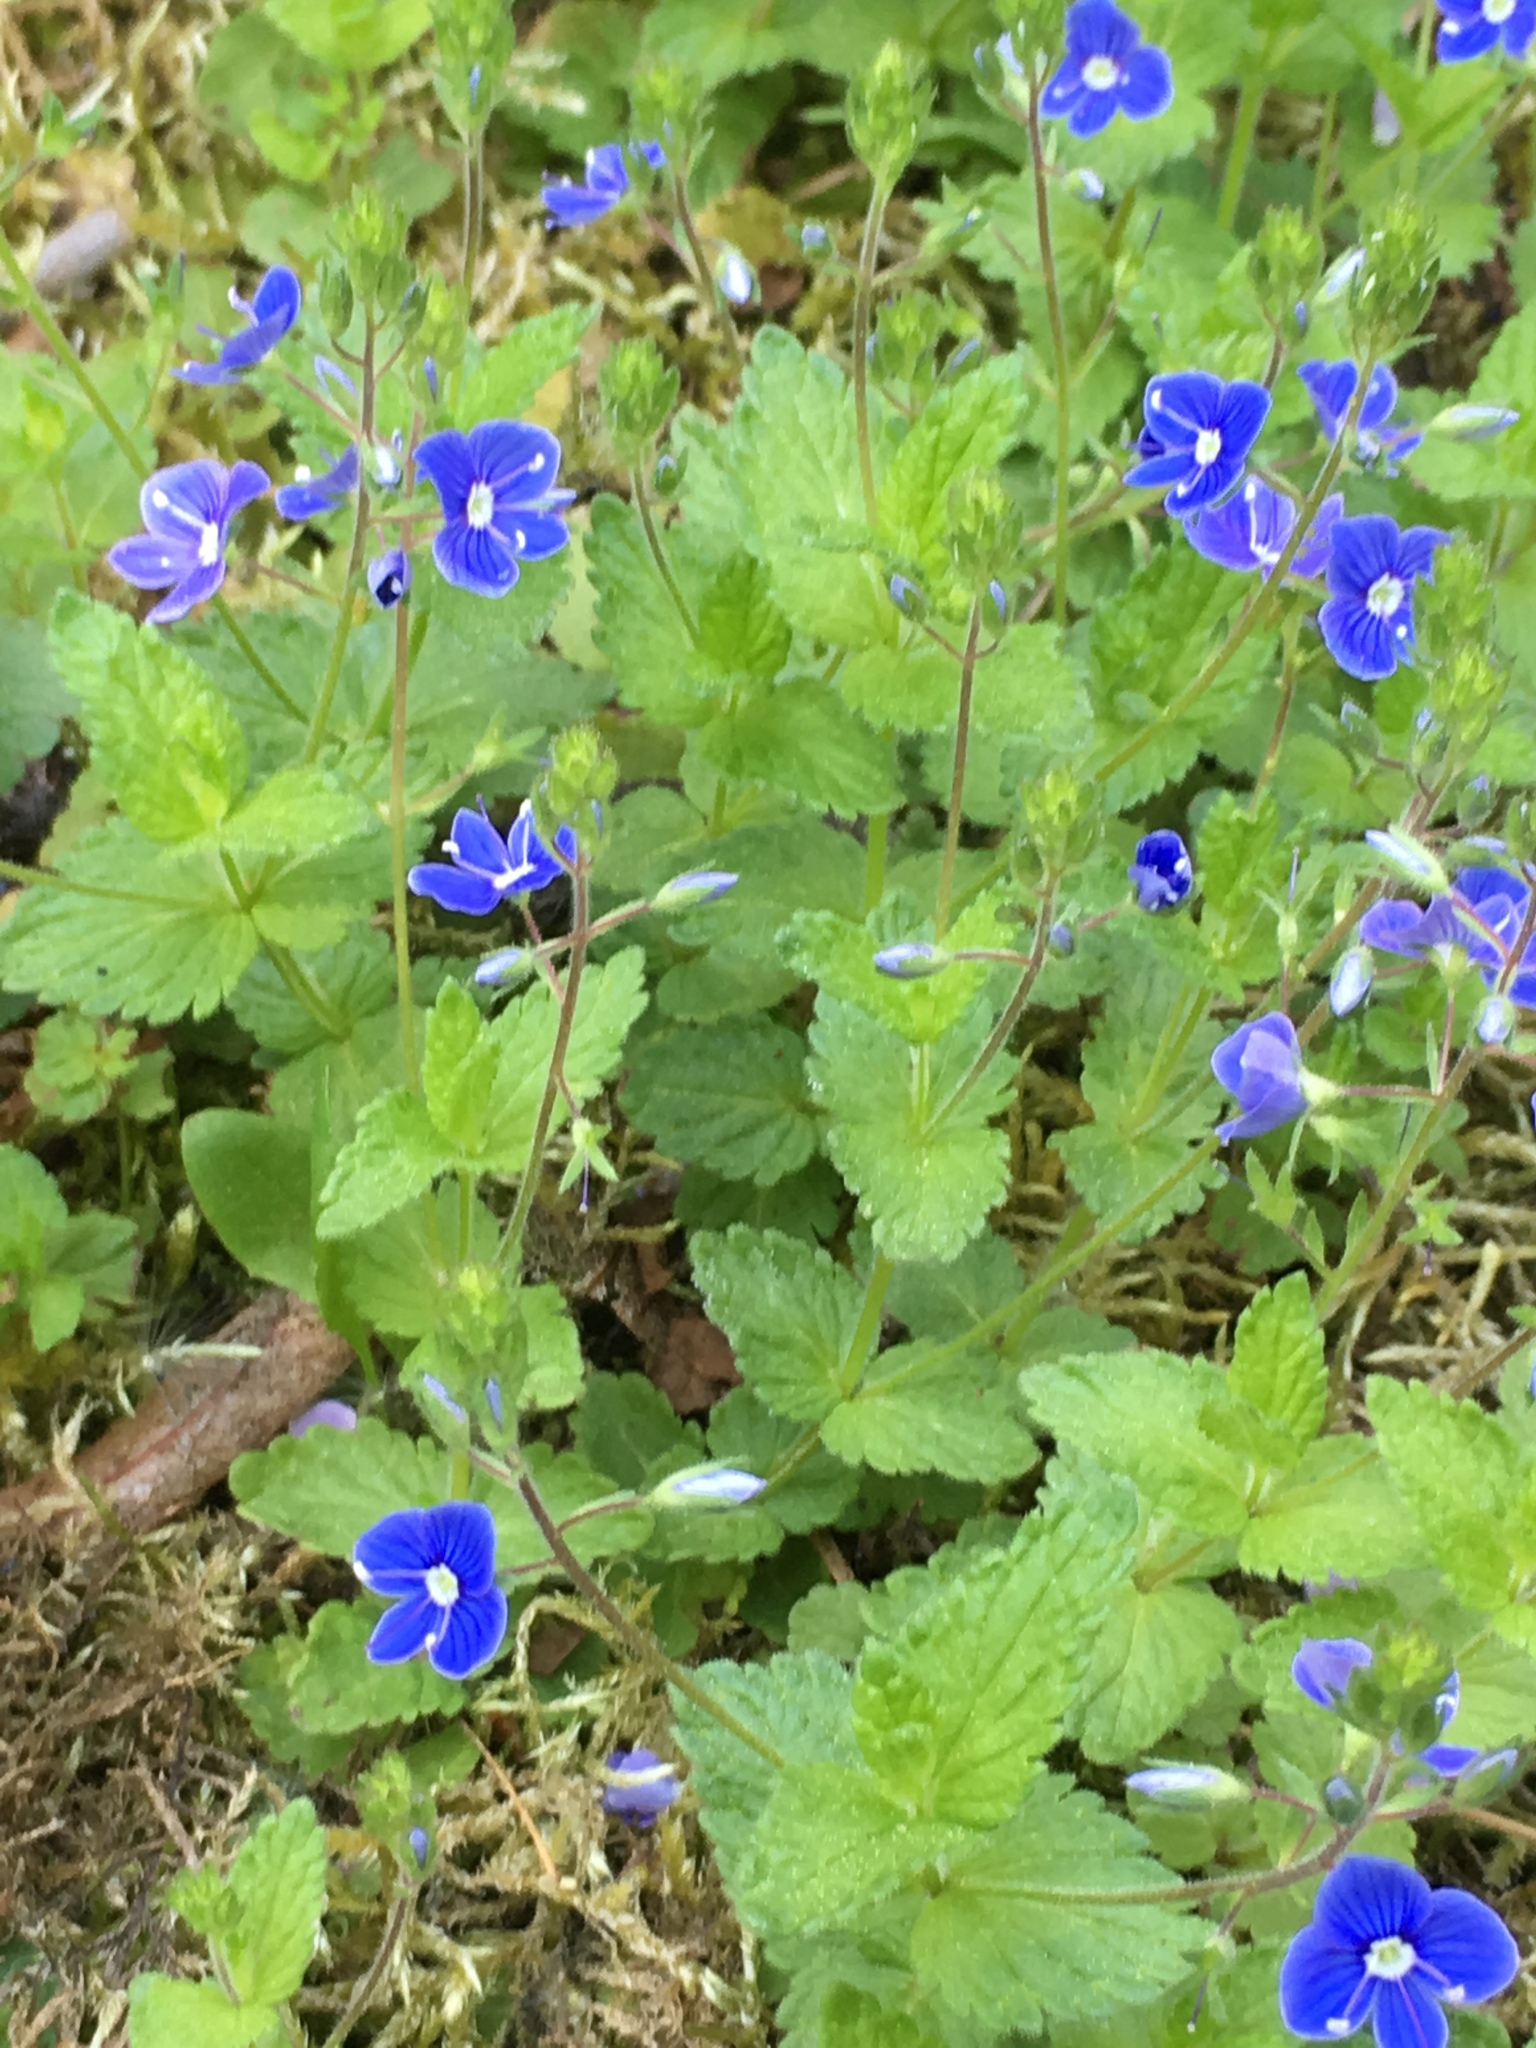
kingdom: Plantae
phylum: Tracheophyta
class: Magnoliopsida
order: Lamiales
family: Plantaginaceae
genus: Veronica
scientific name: Veronica chamaedrys
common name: Germander speedwell
